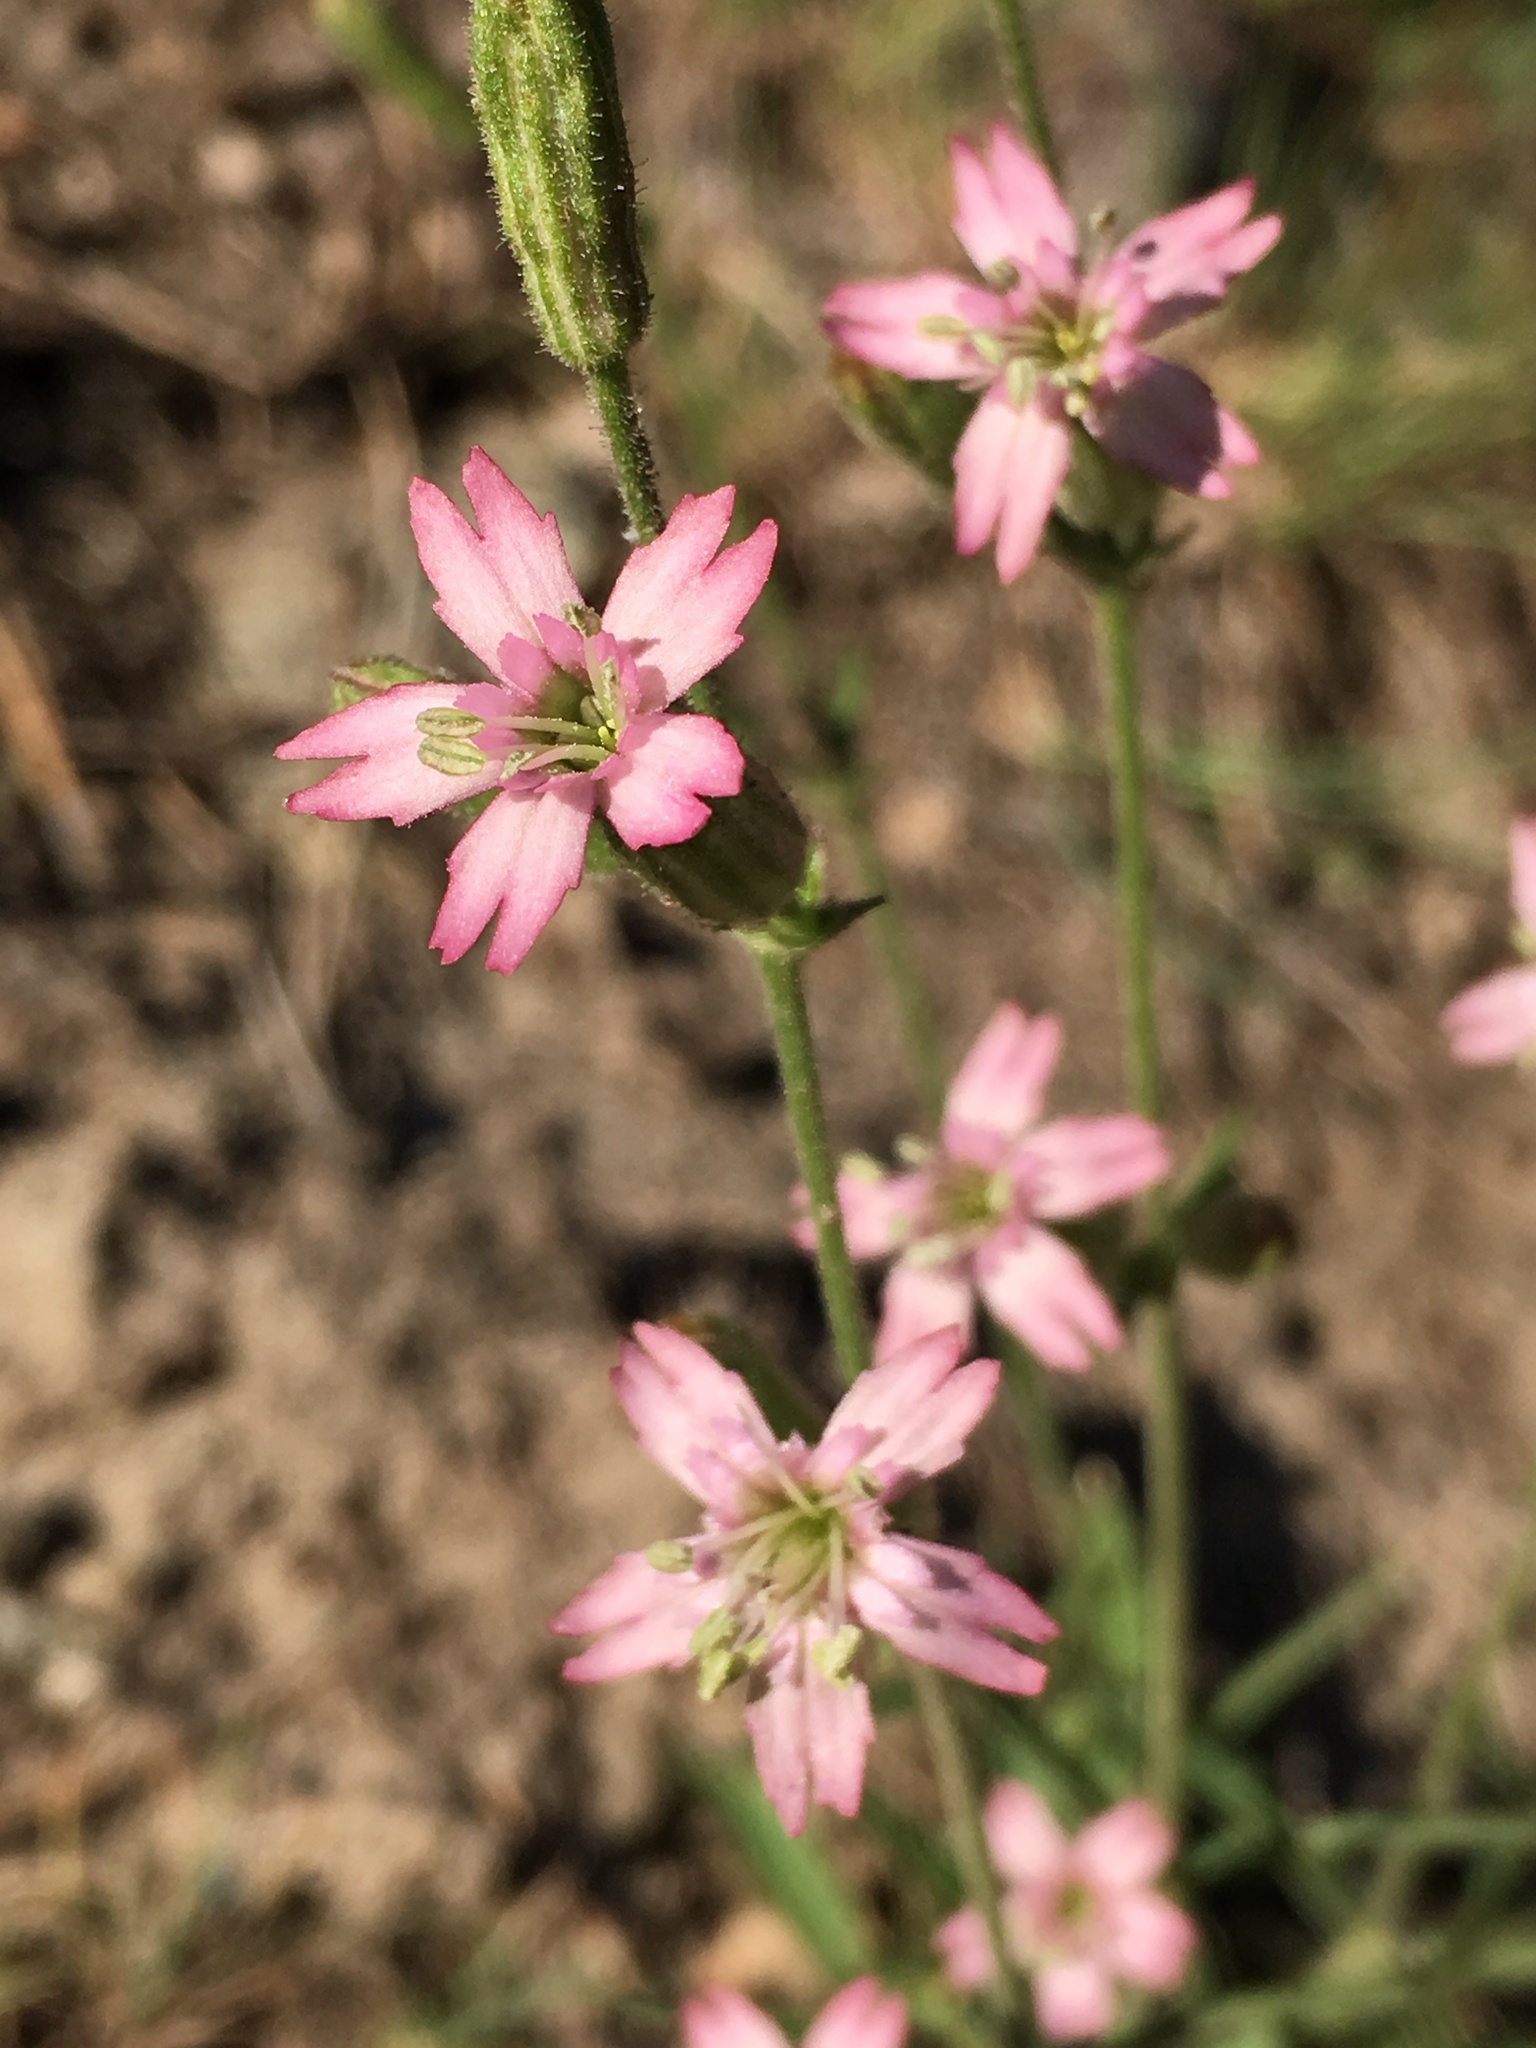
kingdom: Plantae
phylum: Tracheophyta
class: Magnoliopsida
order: Caryophyllales
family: Caryophyllaceae
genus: Silene
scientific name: Silene verecunda
